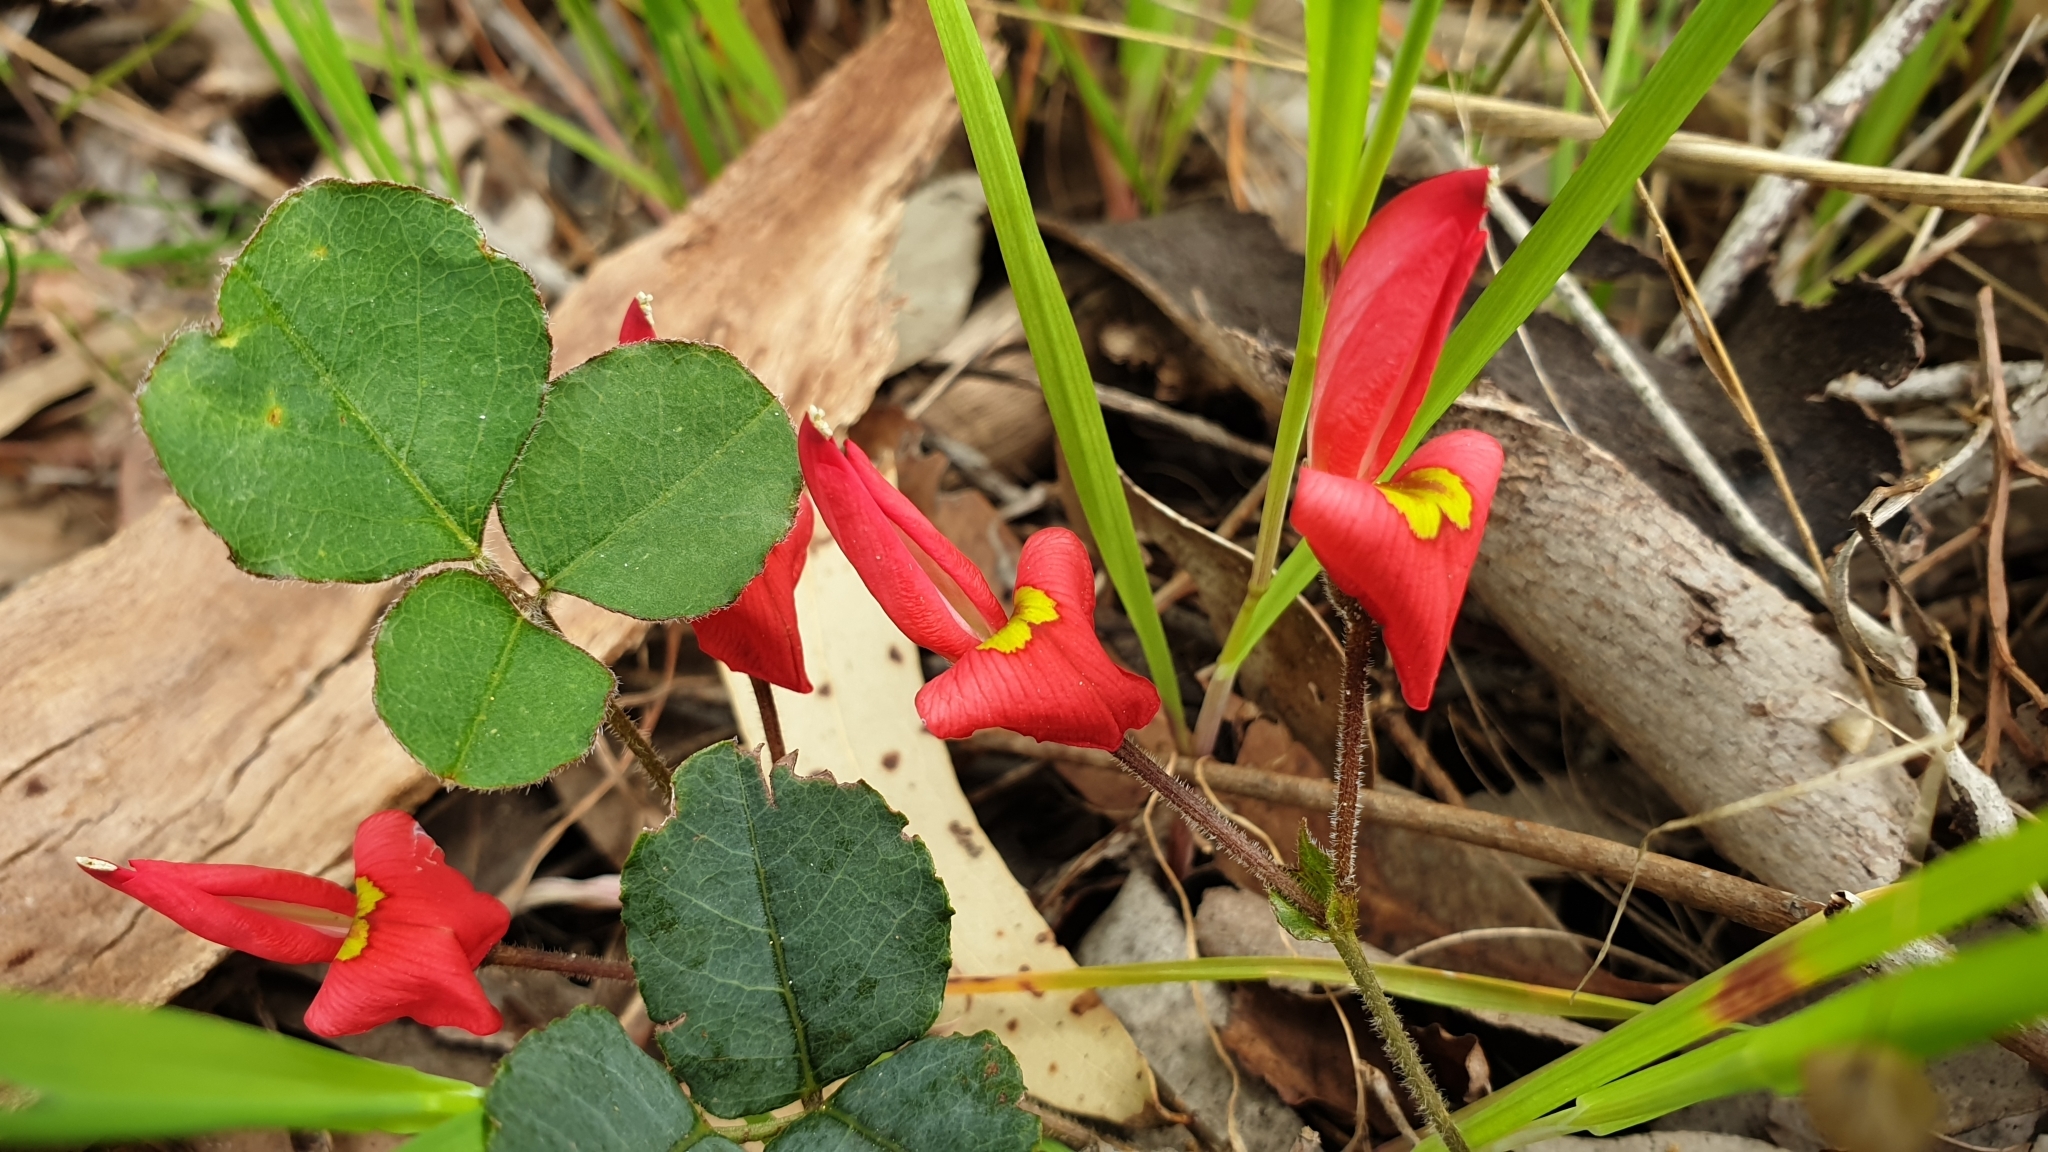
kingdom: Plantae
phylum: Tracheophyta
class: Magnoliopsida
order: Fabales
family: Fabaceae
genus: Kennedia
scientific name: Kennedia prostrata
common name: Running-postman
